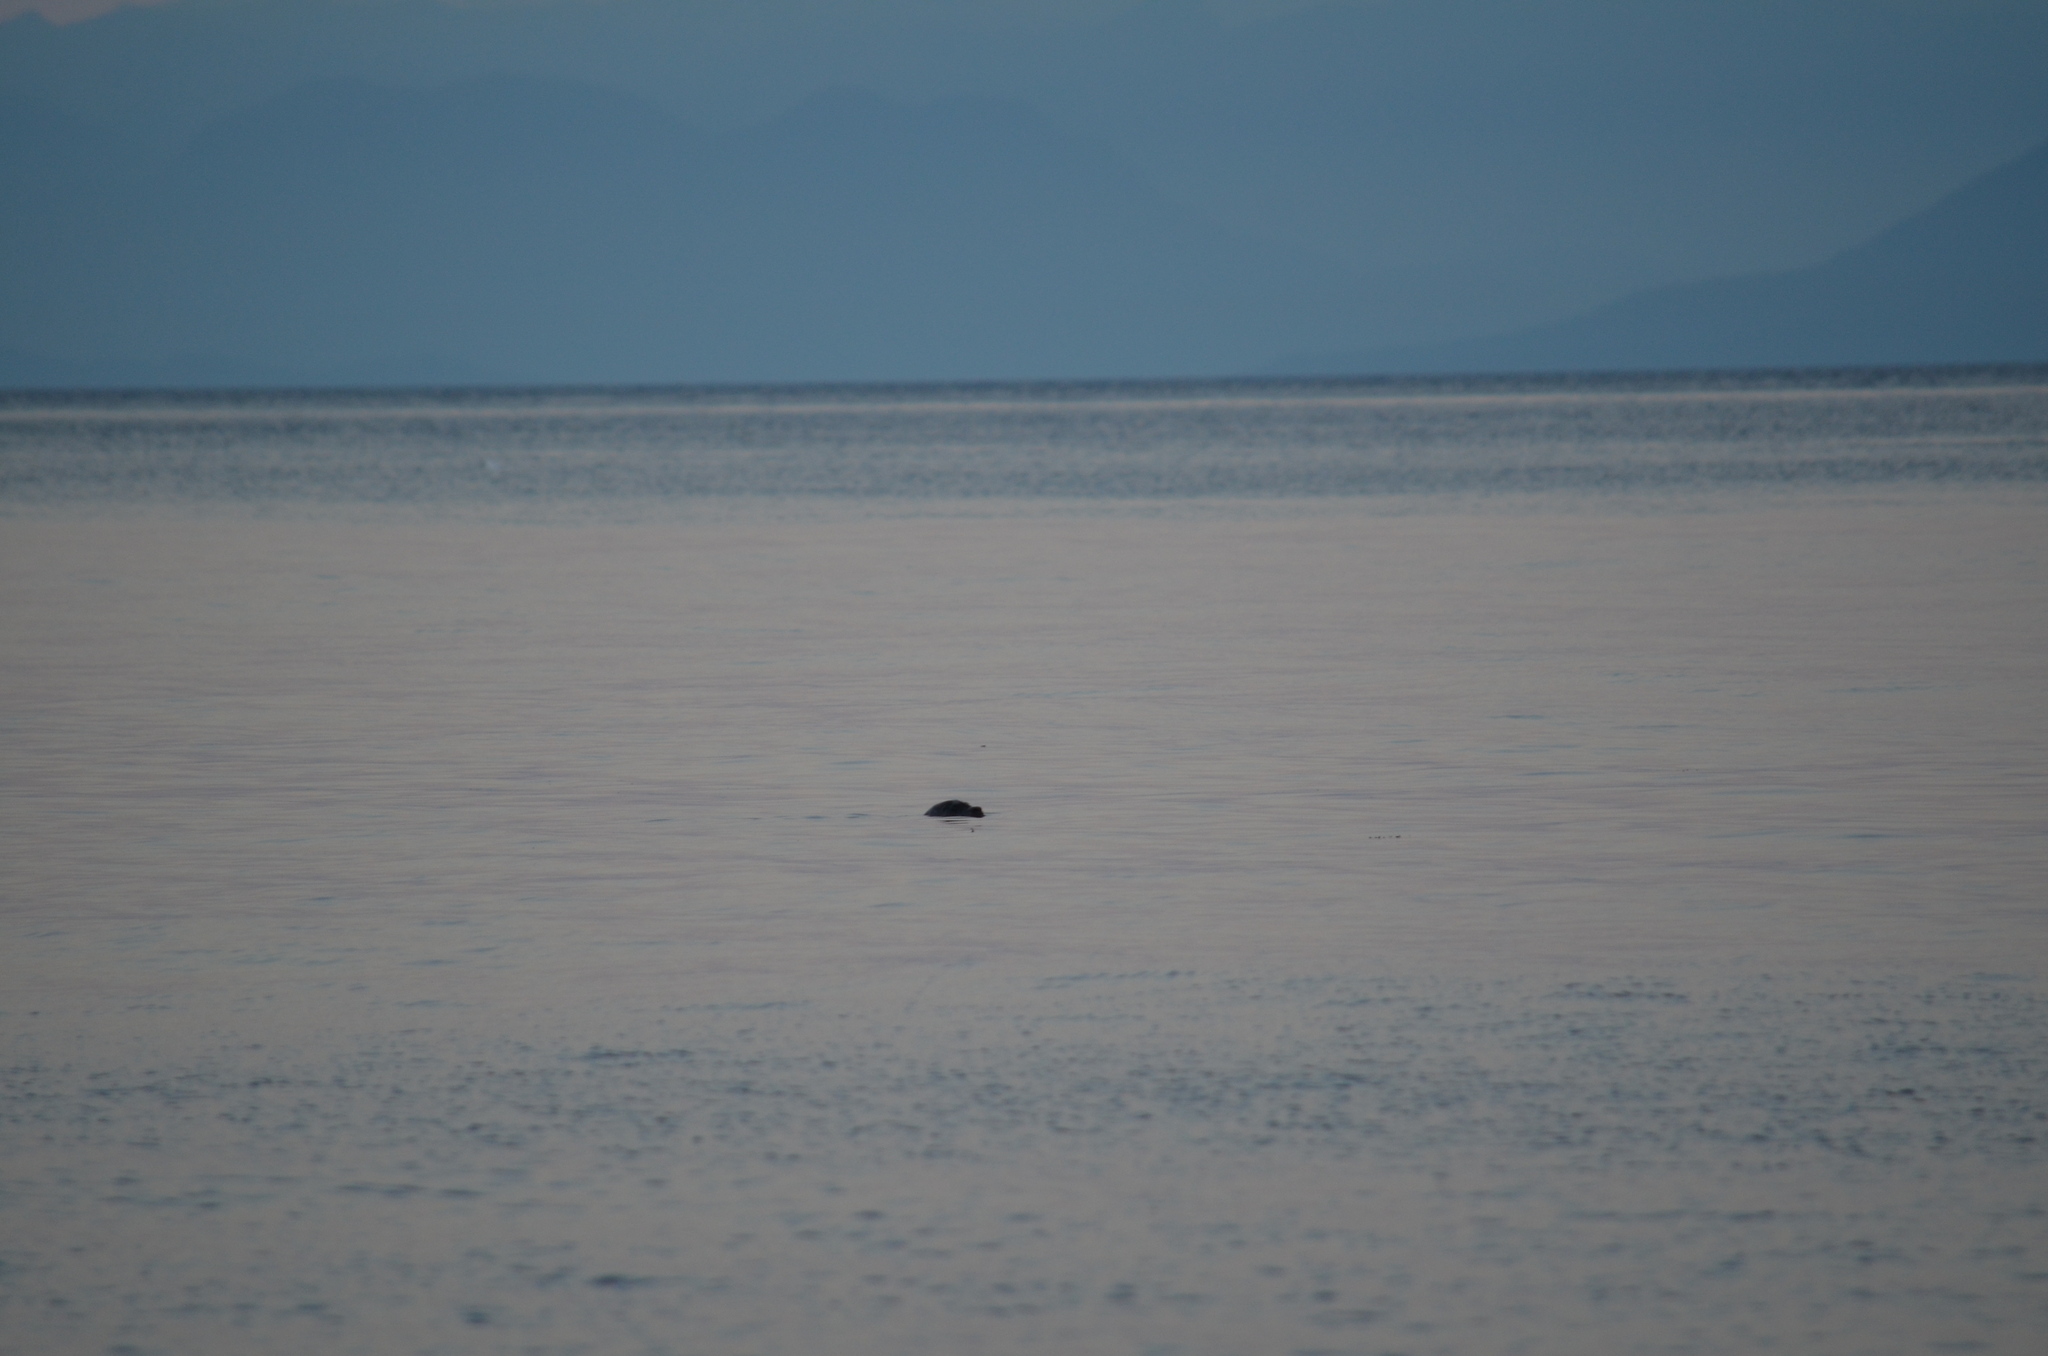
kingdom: Animalia
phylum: Chordata
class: Mammalia
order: Carnivora
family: Phocidae
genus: Phoca
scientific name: Phoca vitulina
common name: Harbor seal
